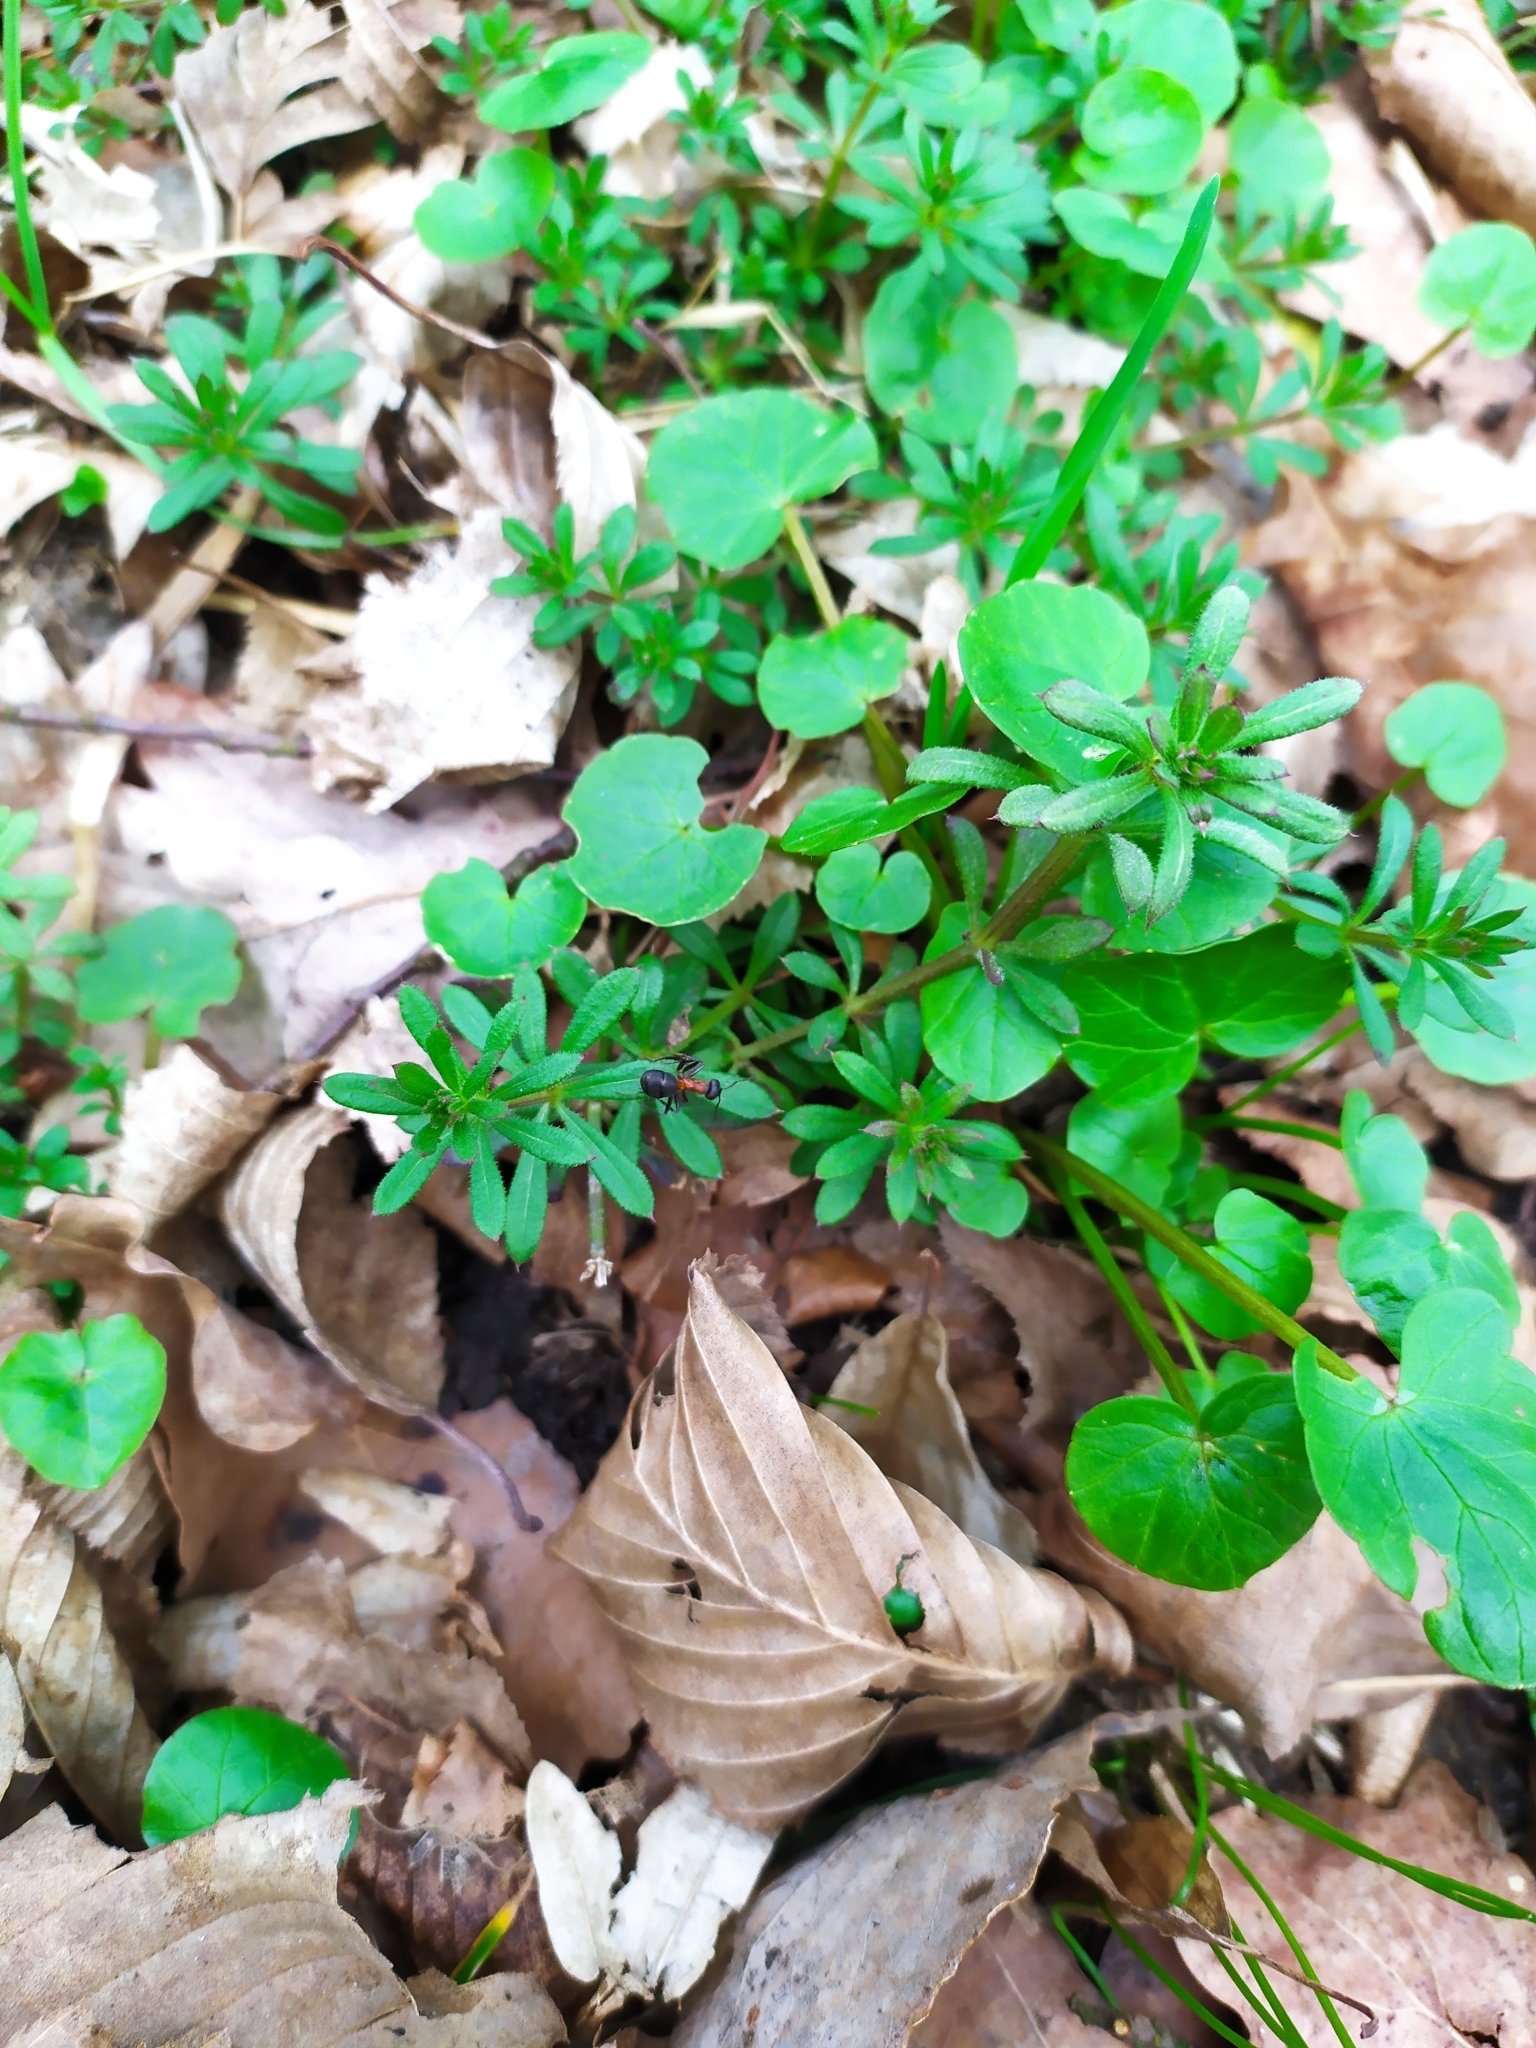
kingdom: Plantae
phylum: Tracheophyta
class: Magnoliopsida
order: Gentianales
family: Rubiaceae
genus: Galium
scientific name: Galium aparine
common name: Cleavers
